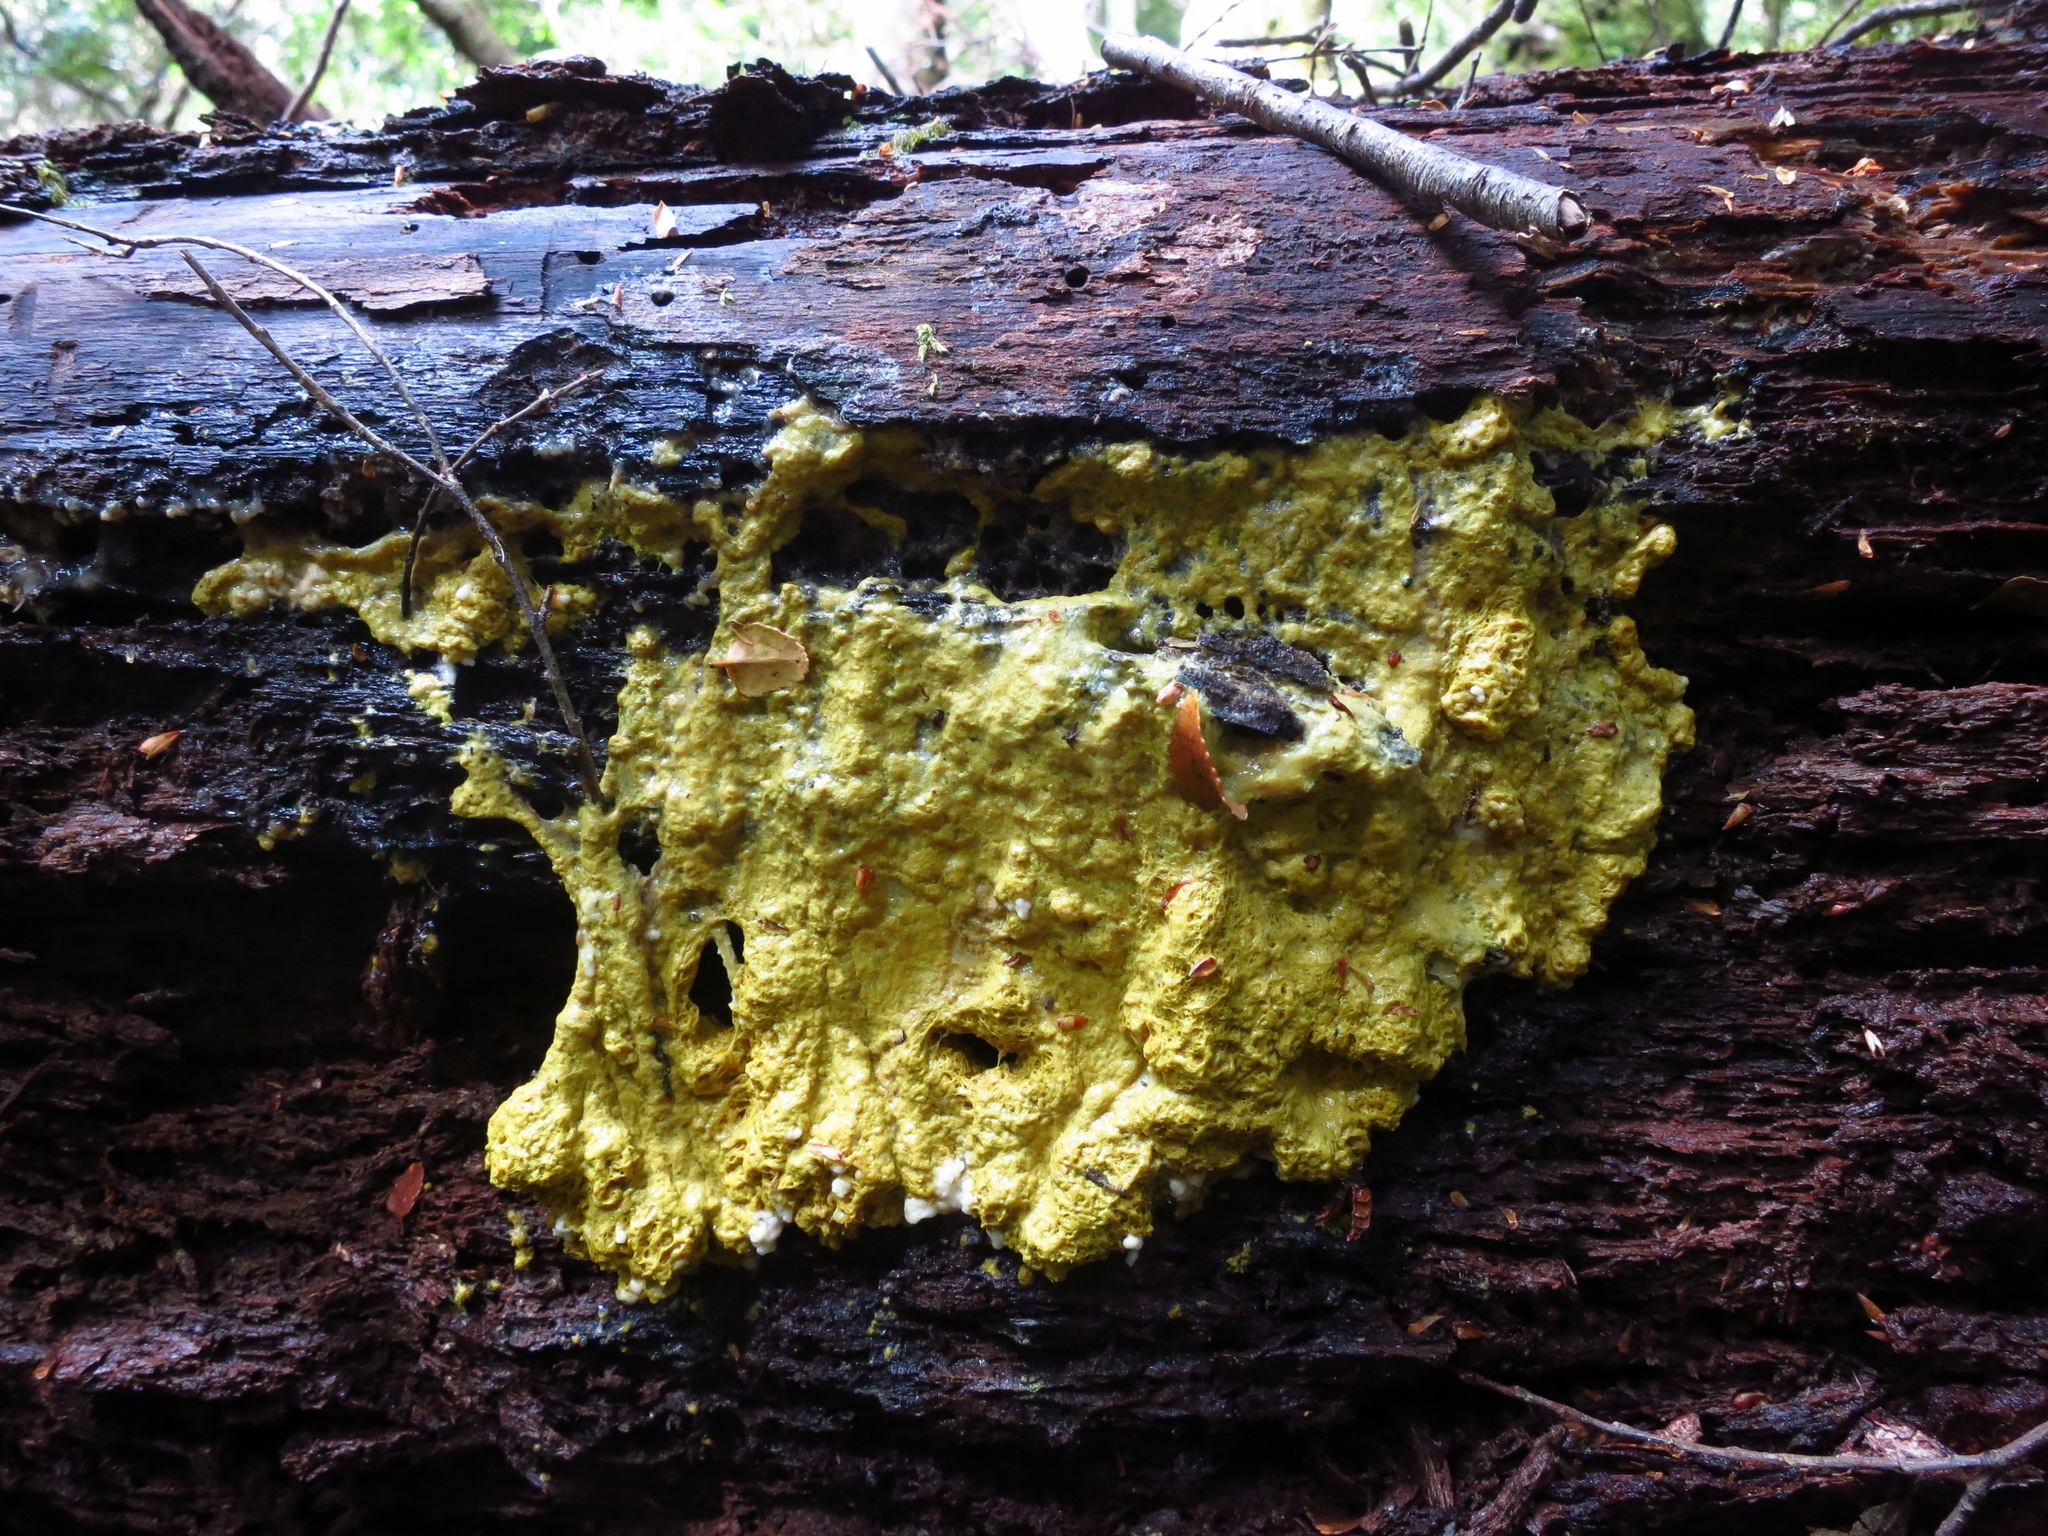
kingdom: Protozoa
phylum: Mycetozoa
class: Myxomycetes
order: Physarales
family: Physaraceae
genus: Fuligo
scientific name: Fuligo septica
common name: Dog vomit slime mold
